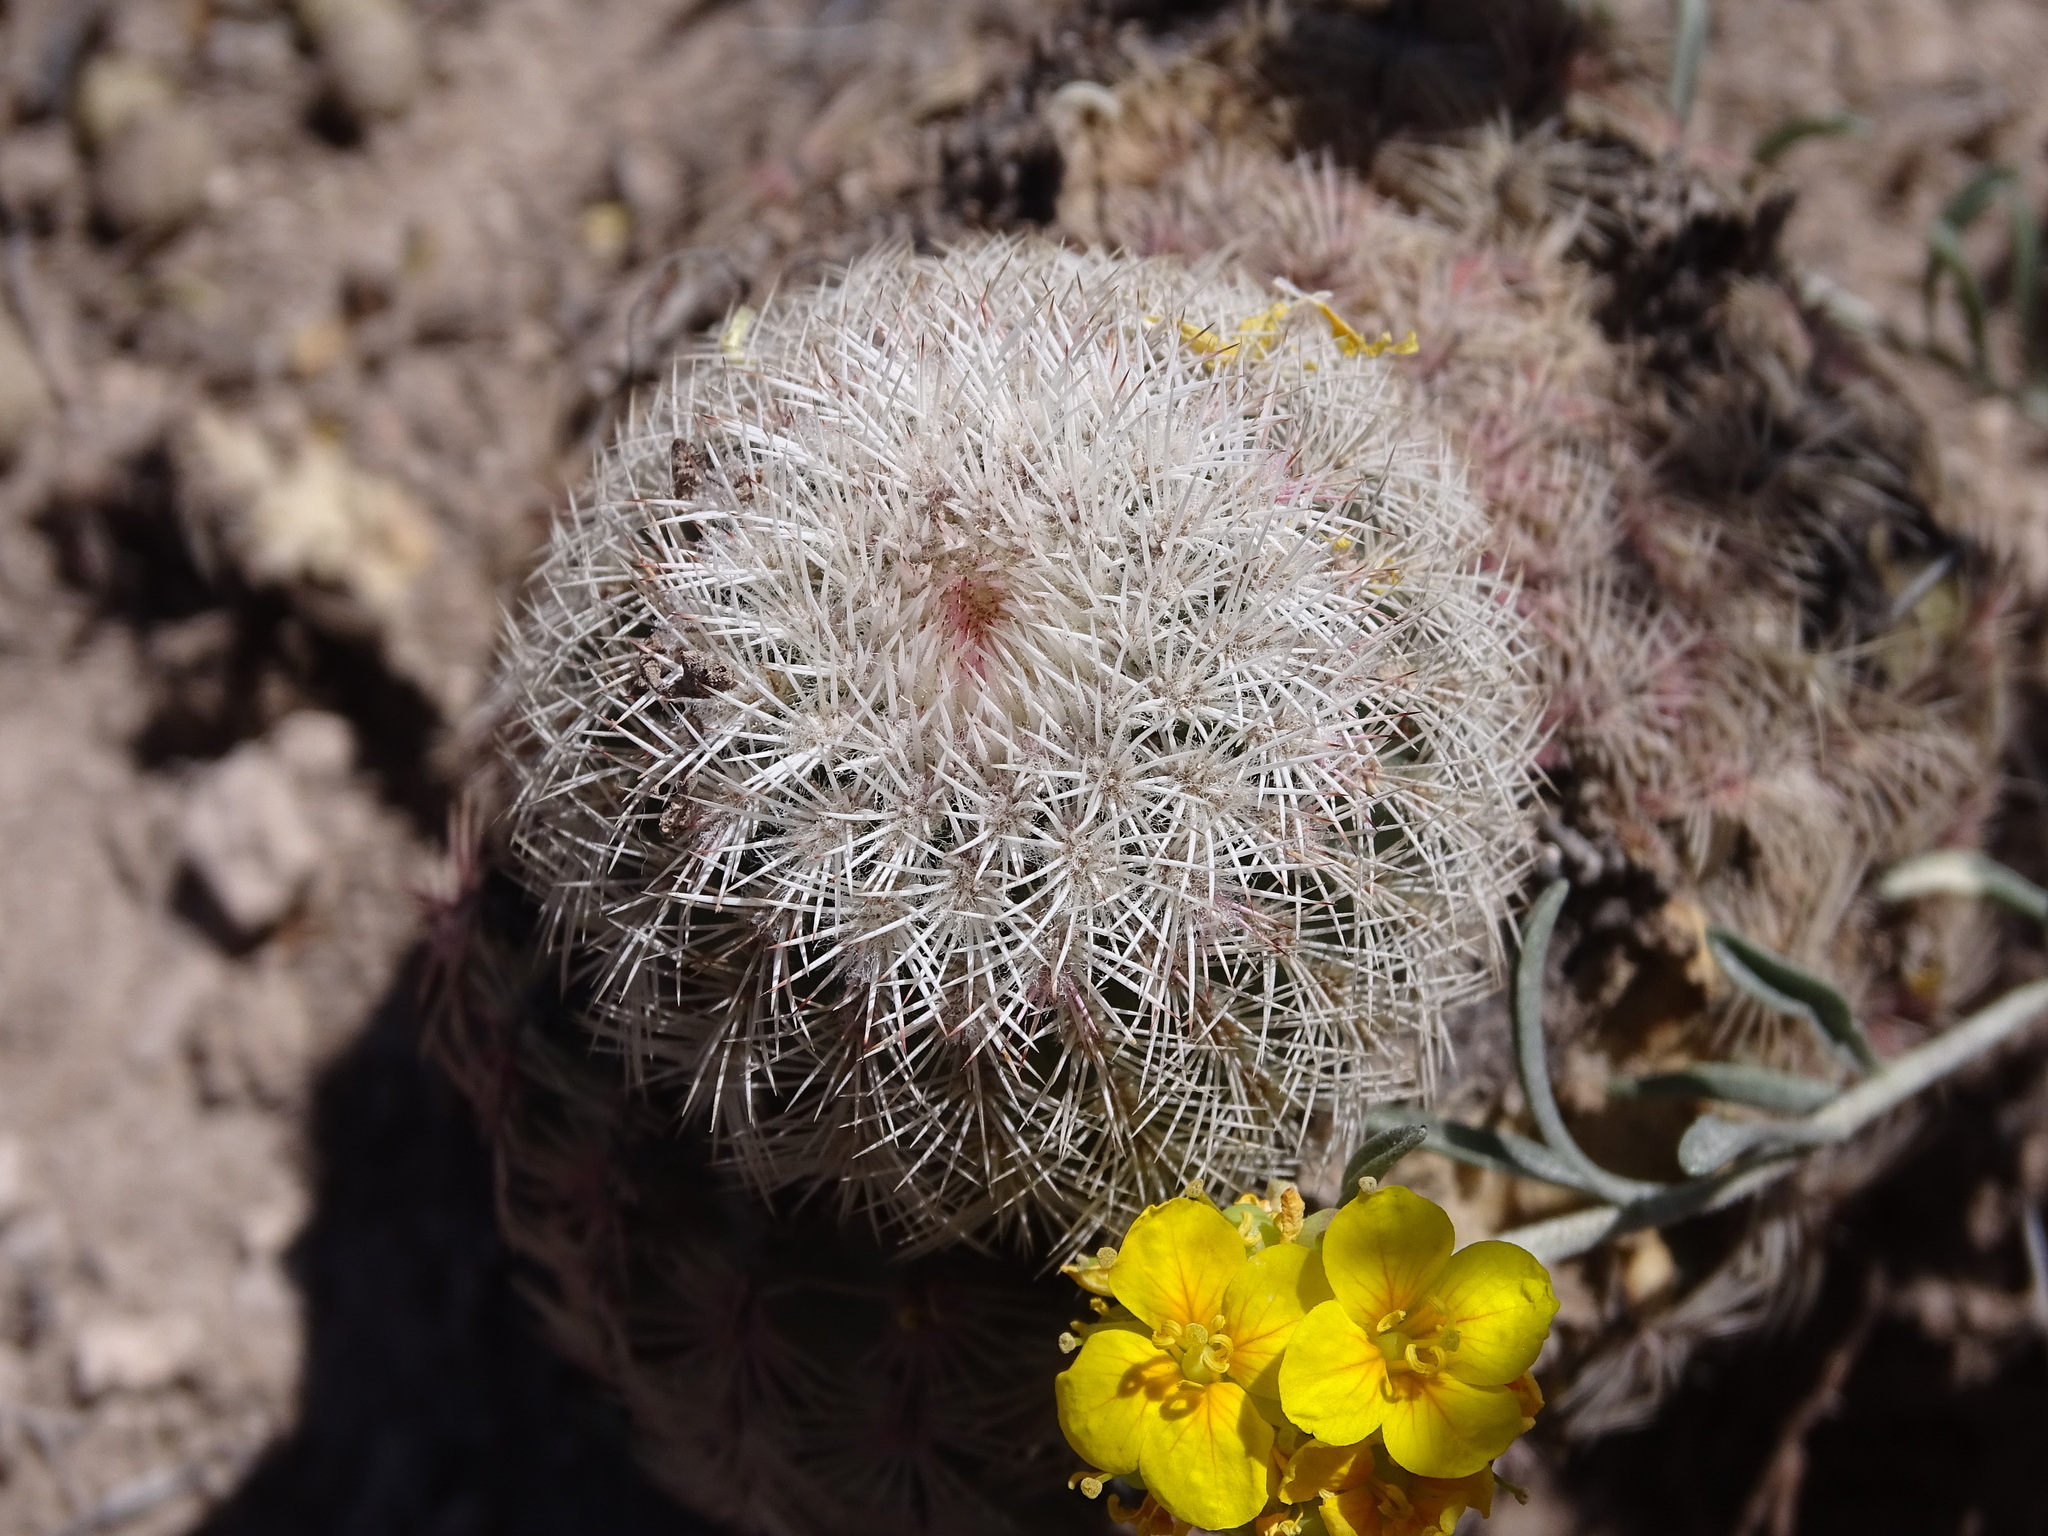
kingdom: Plantae
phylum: Tracheophyta
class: Magnoliopsida
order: Caryophyllales
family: Cactaceae
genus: Echinocereus
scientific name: Echinocereus pectinatus
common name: Rainbow cactus
